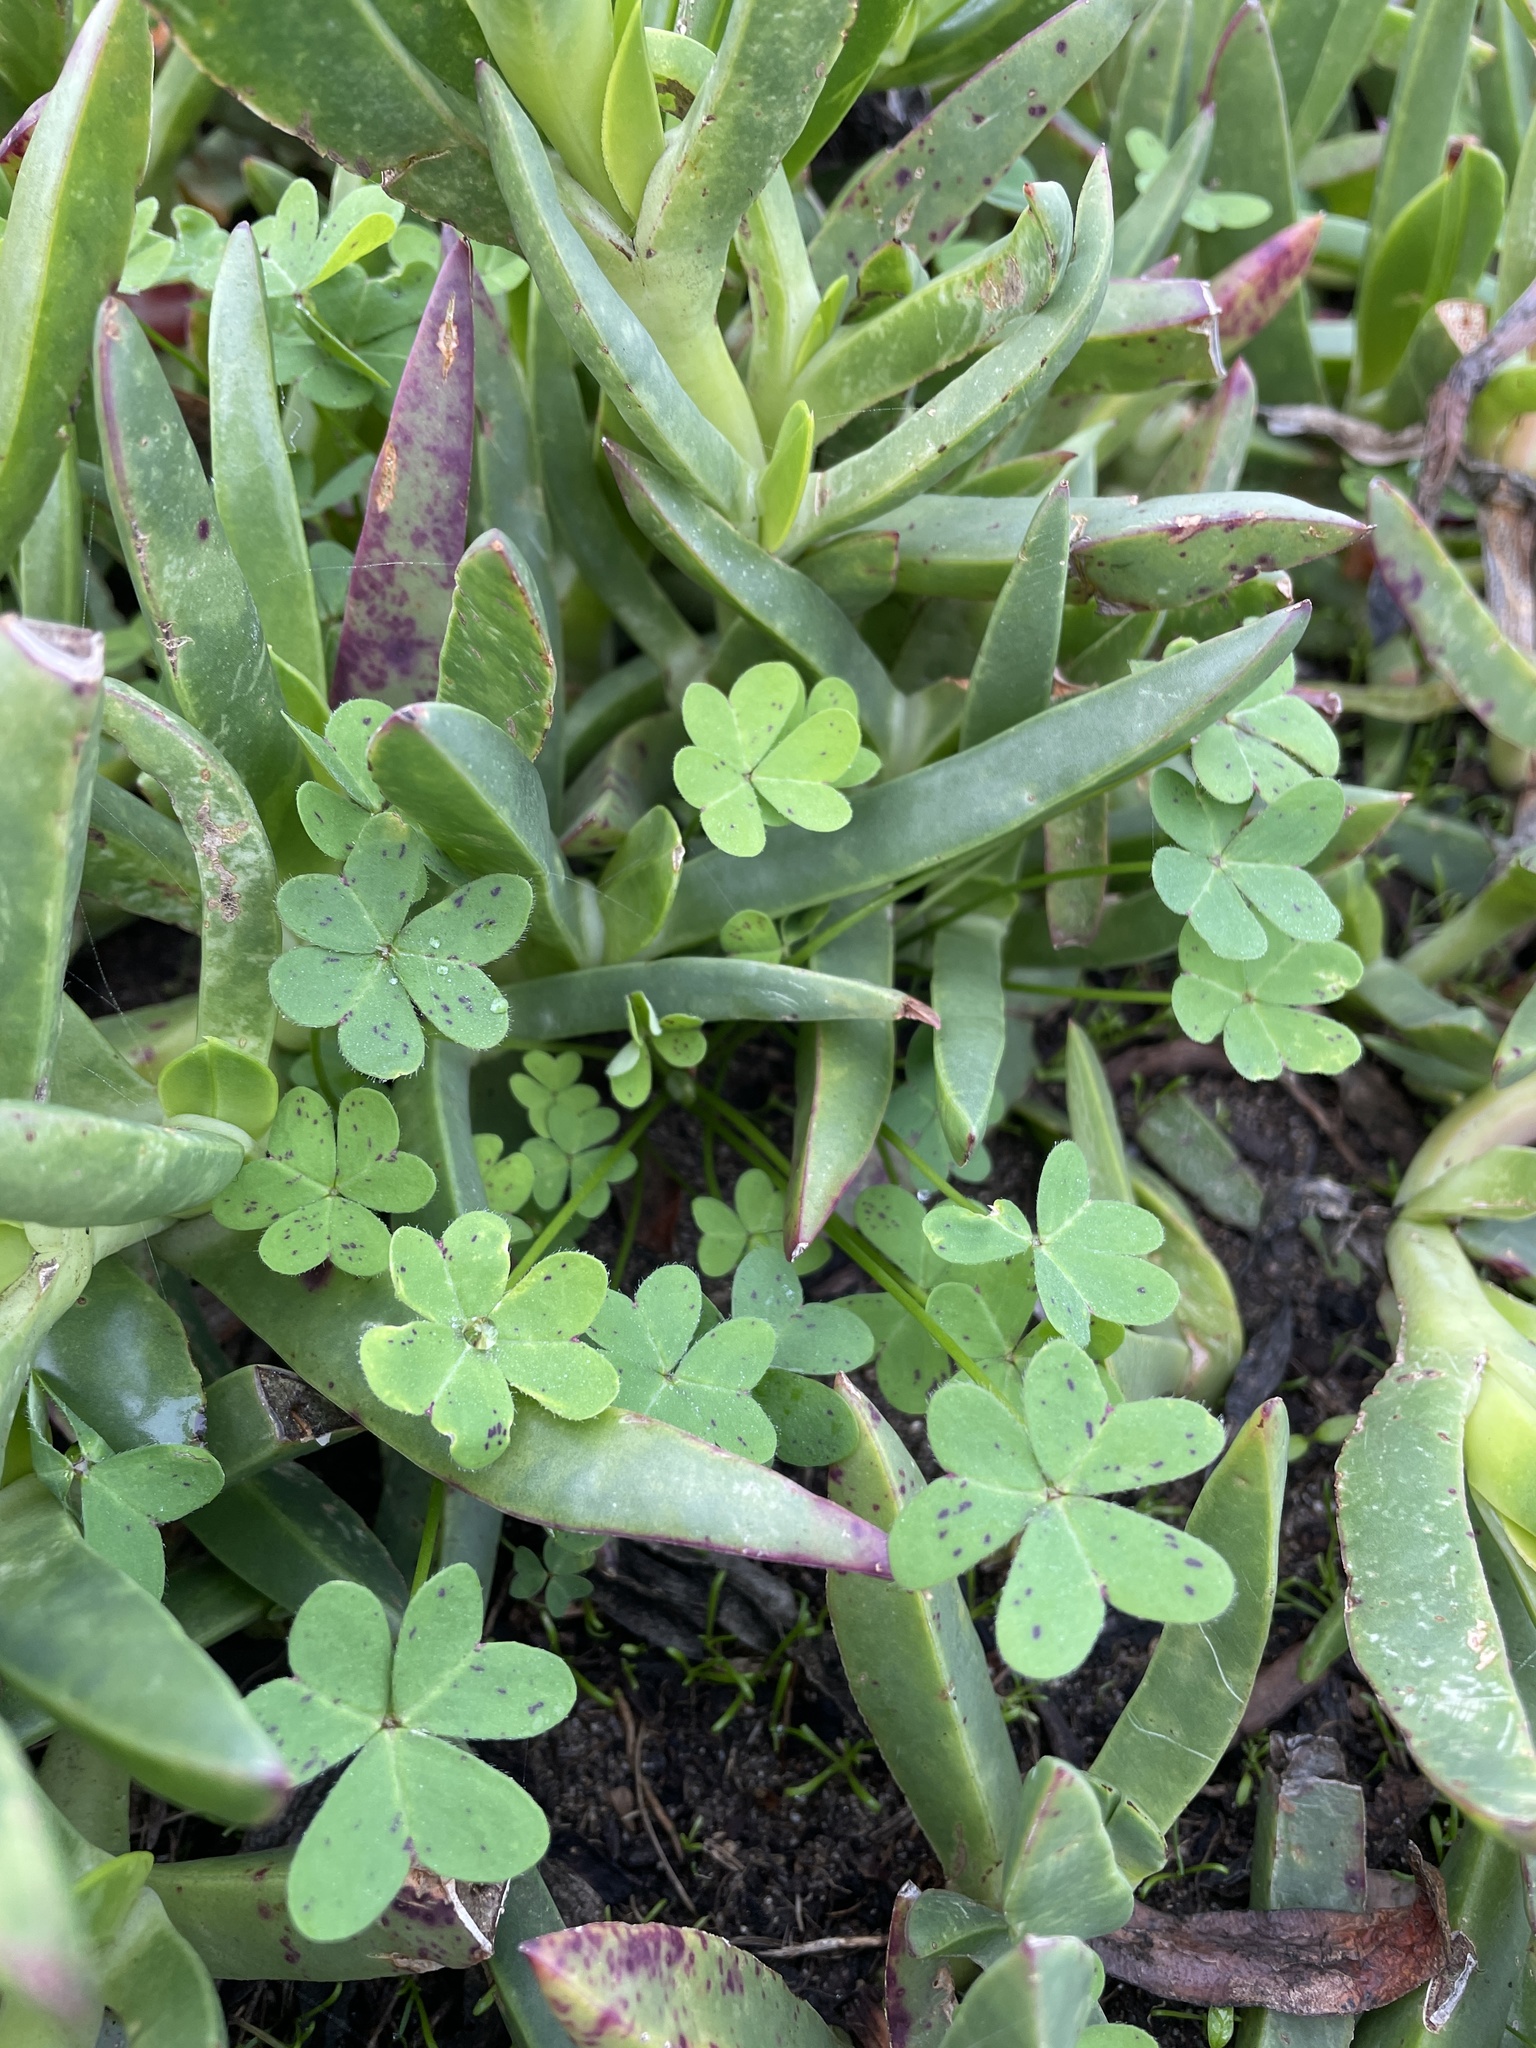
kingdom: Plantae
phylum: Tracheophyta
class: Magnoliopsida
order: Oxalidales
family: Oxalidaceae
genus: Oxalis
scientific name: Oxalis pes-caprae
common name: Bermuda-buttercup
